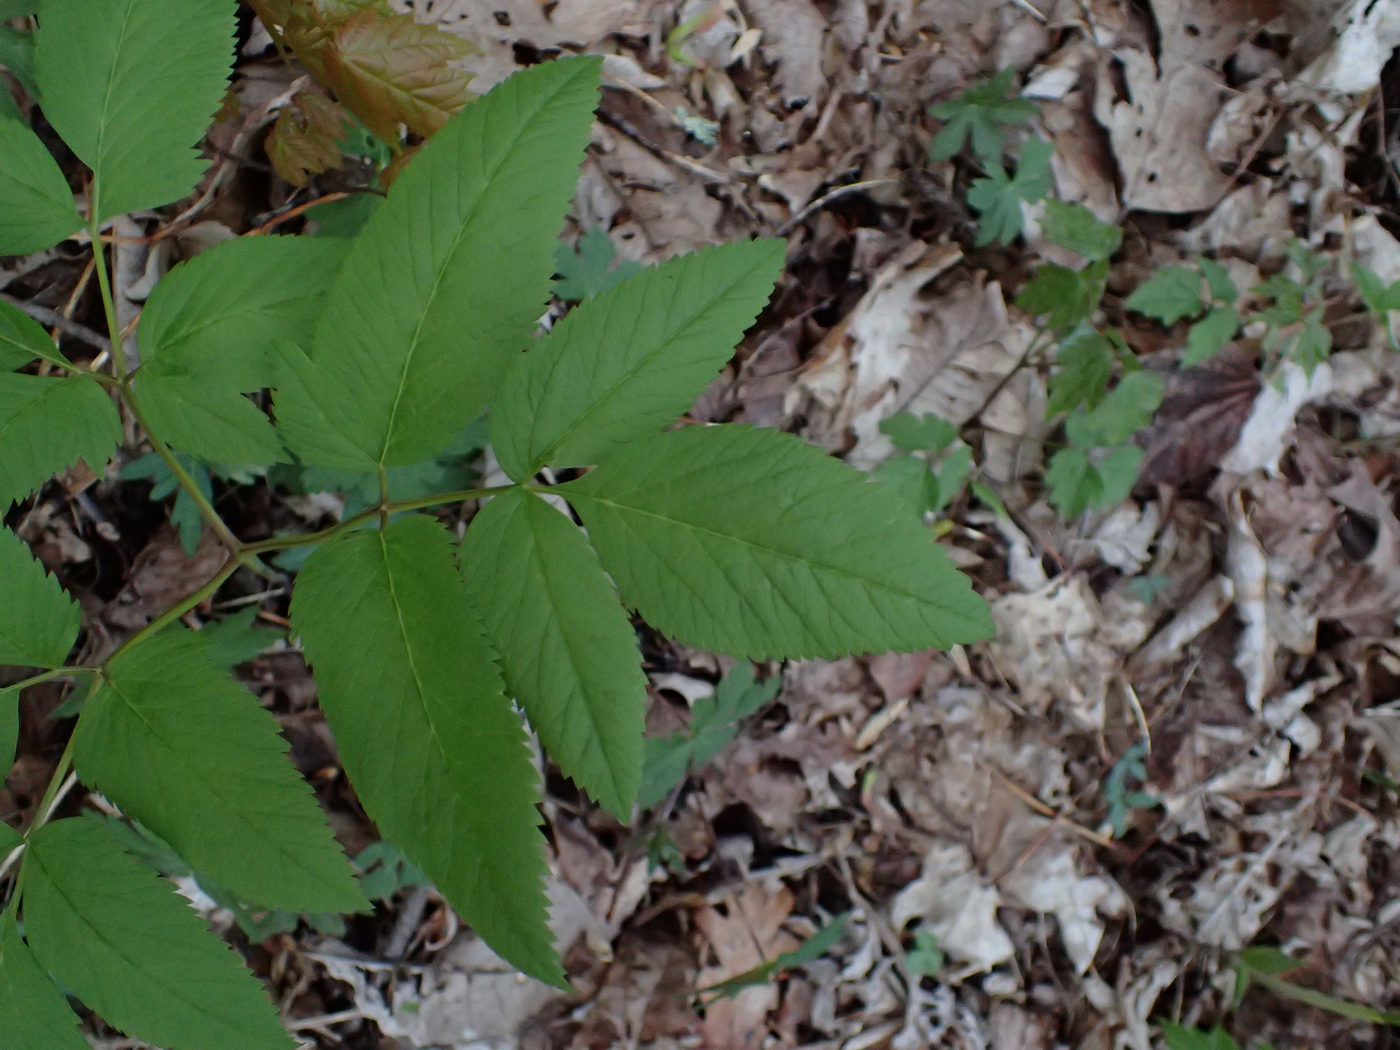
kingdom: Plantae
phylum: Tracheophyta
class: Magnoliopsida
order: Apiales
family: Apiaceae
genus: Ligusticum
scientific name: Ligusticum canadense
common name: American lovage
